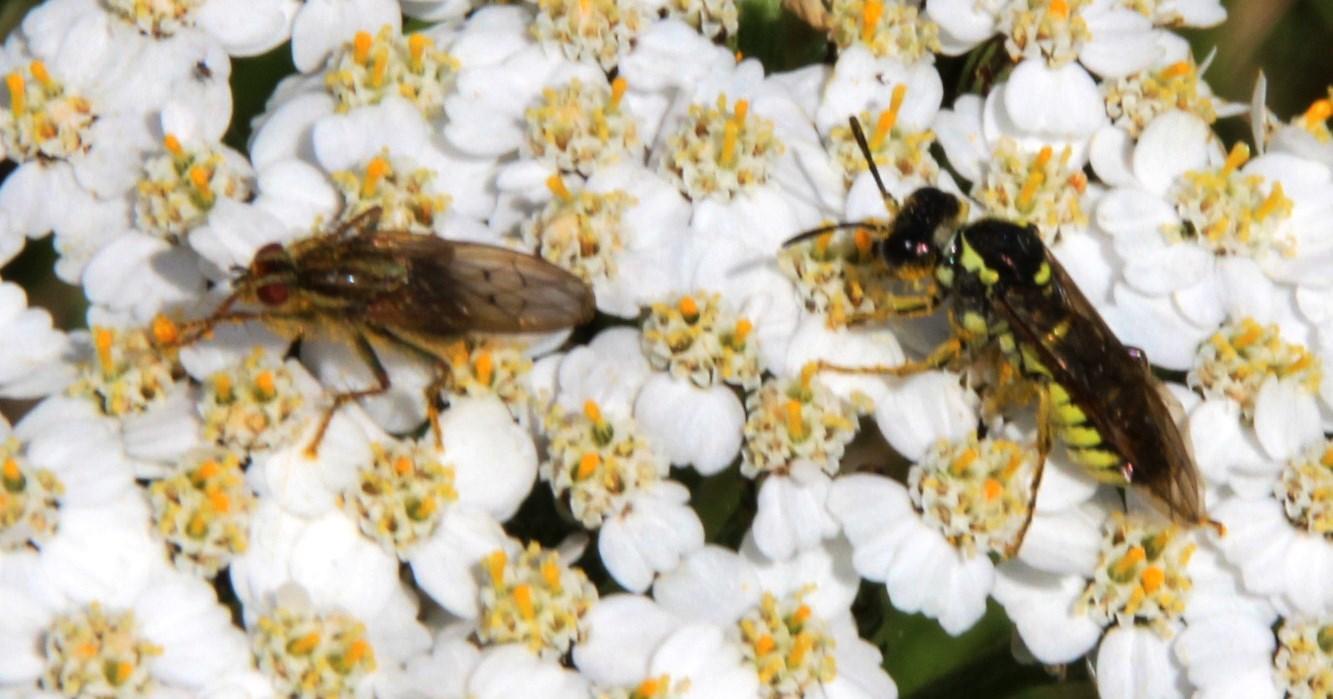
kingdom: Plantae
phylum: Tracheophyta
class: Magnoliopsida
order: Asterales
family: Asteraceae
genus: Achillea
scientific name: Achillea millefolium
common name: Yarrow
